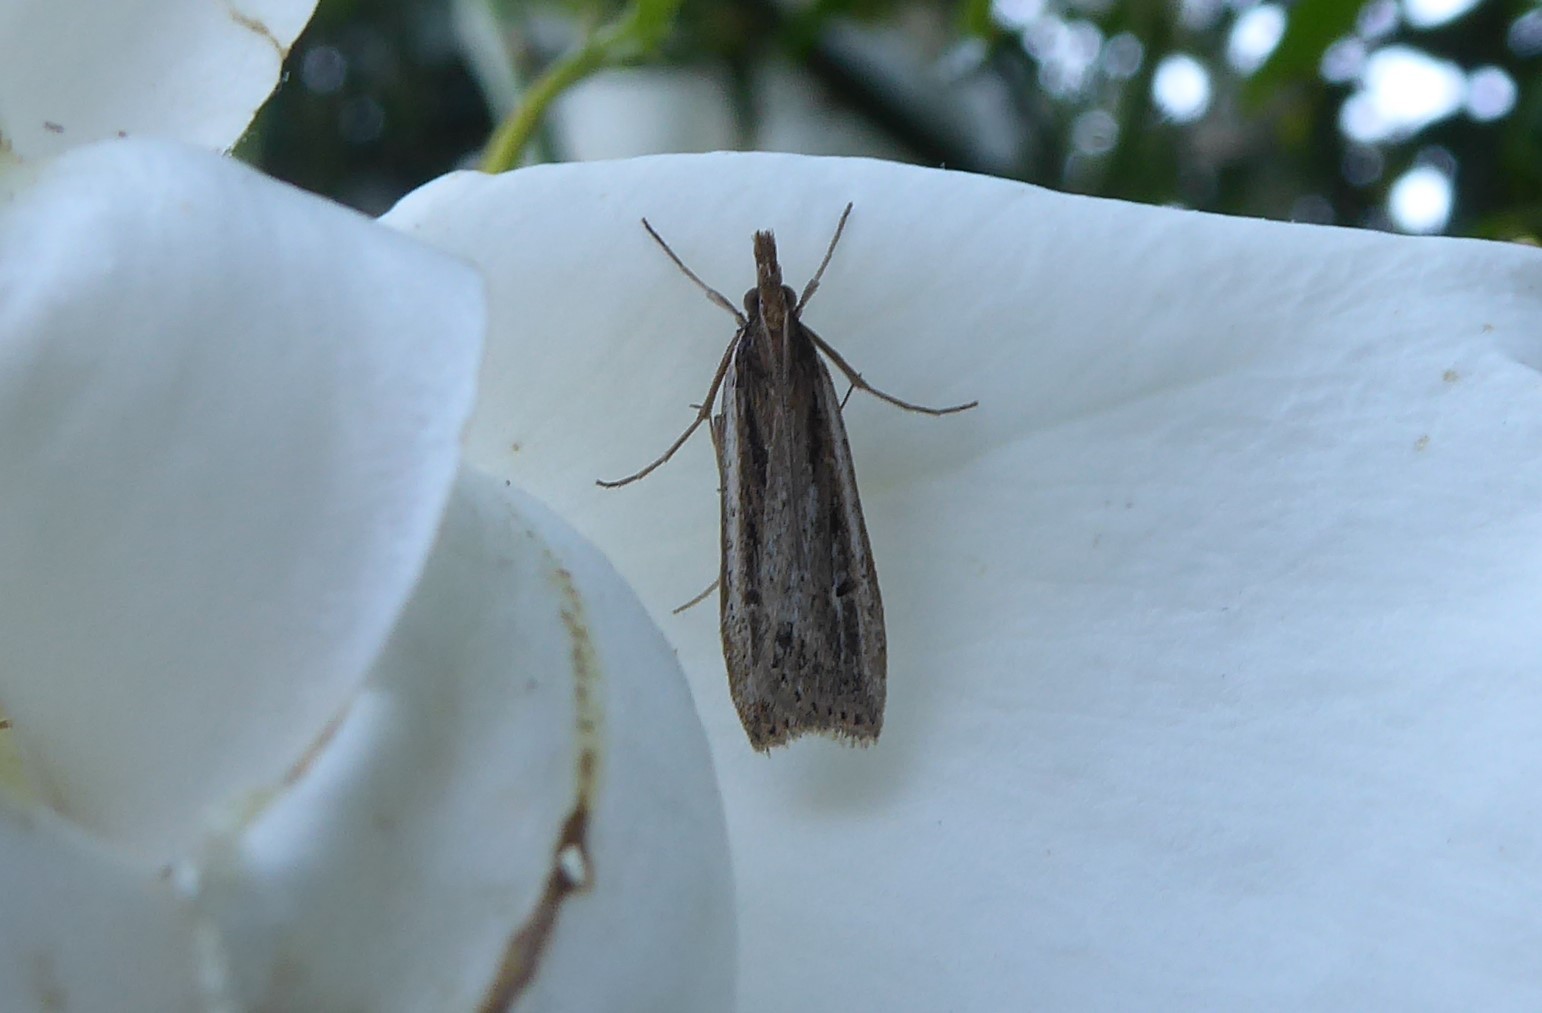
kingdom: Animalia
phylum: Arthropoda
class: Insecta
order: Lepidoptera
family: Crambidae
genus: Eudonia
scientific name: Eudonia sabulosella
